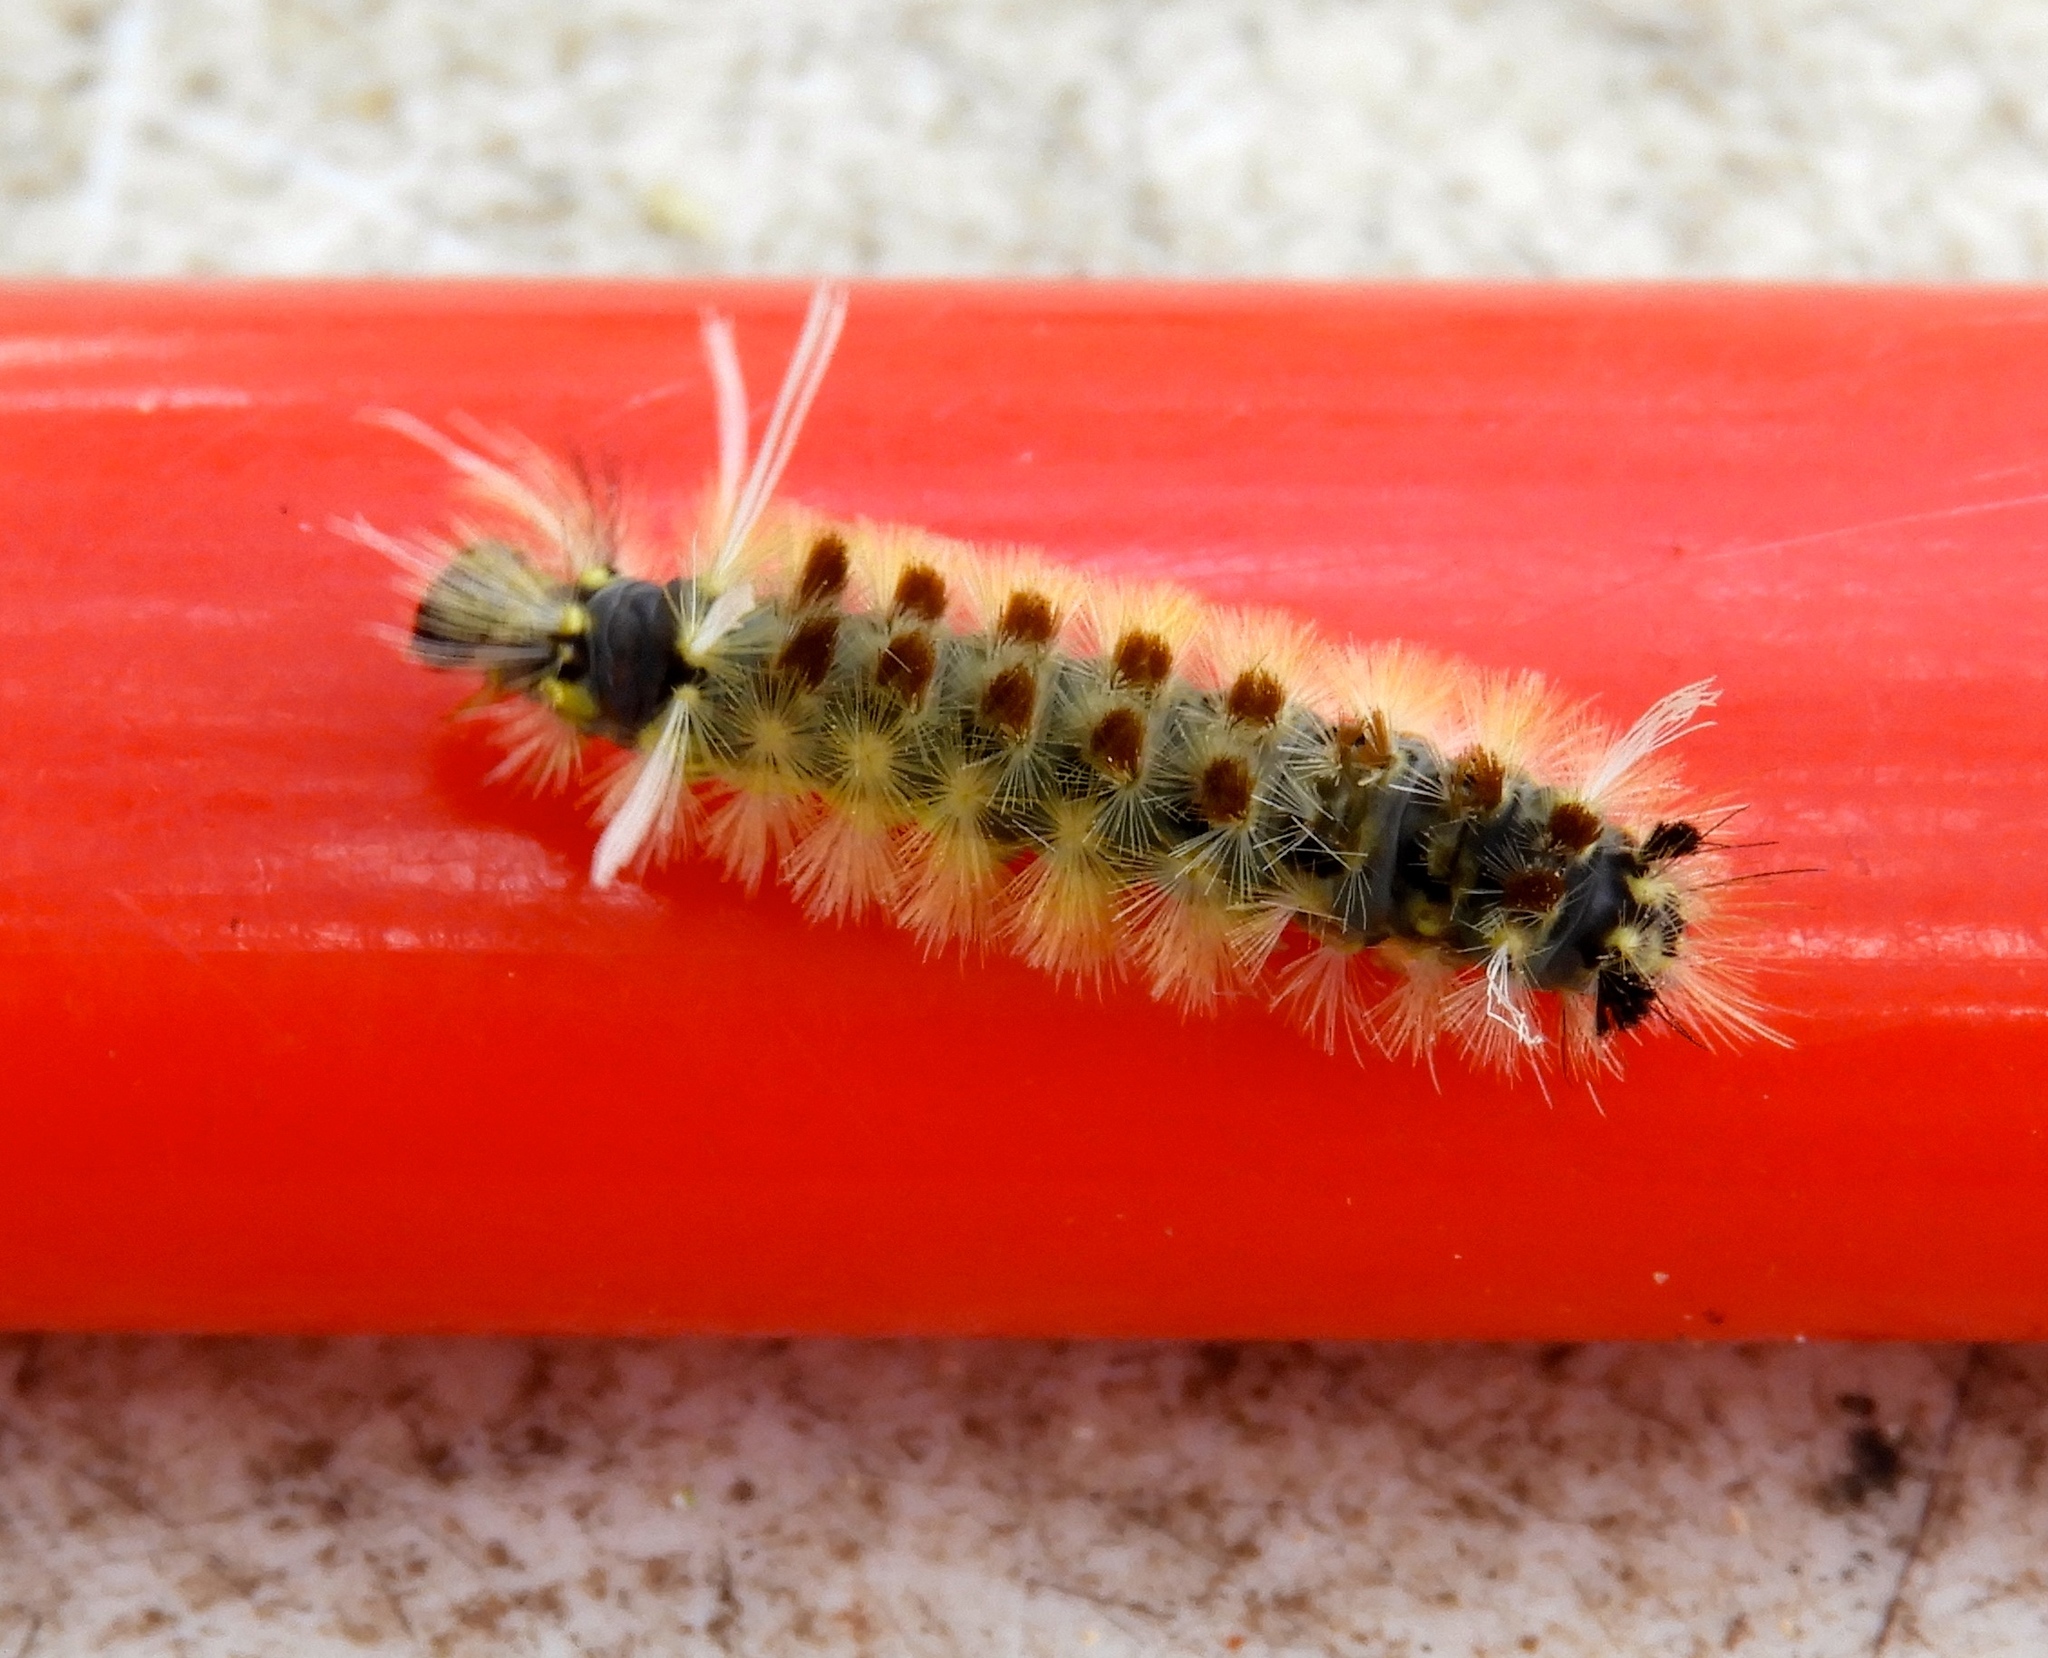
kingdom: Animalia
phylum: Arthropoda
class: Insecta
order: Lepidoptera
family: Erebidae
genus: Lophocampa
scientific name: Lophocampa annulosa
